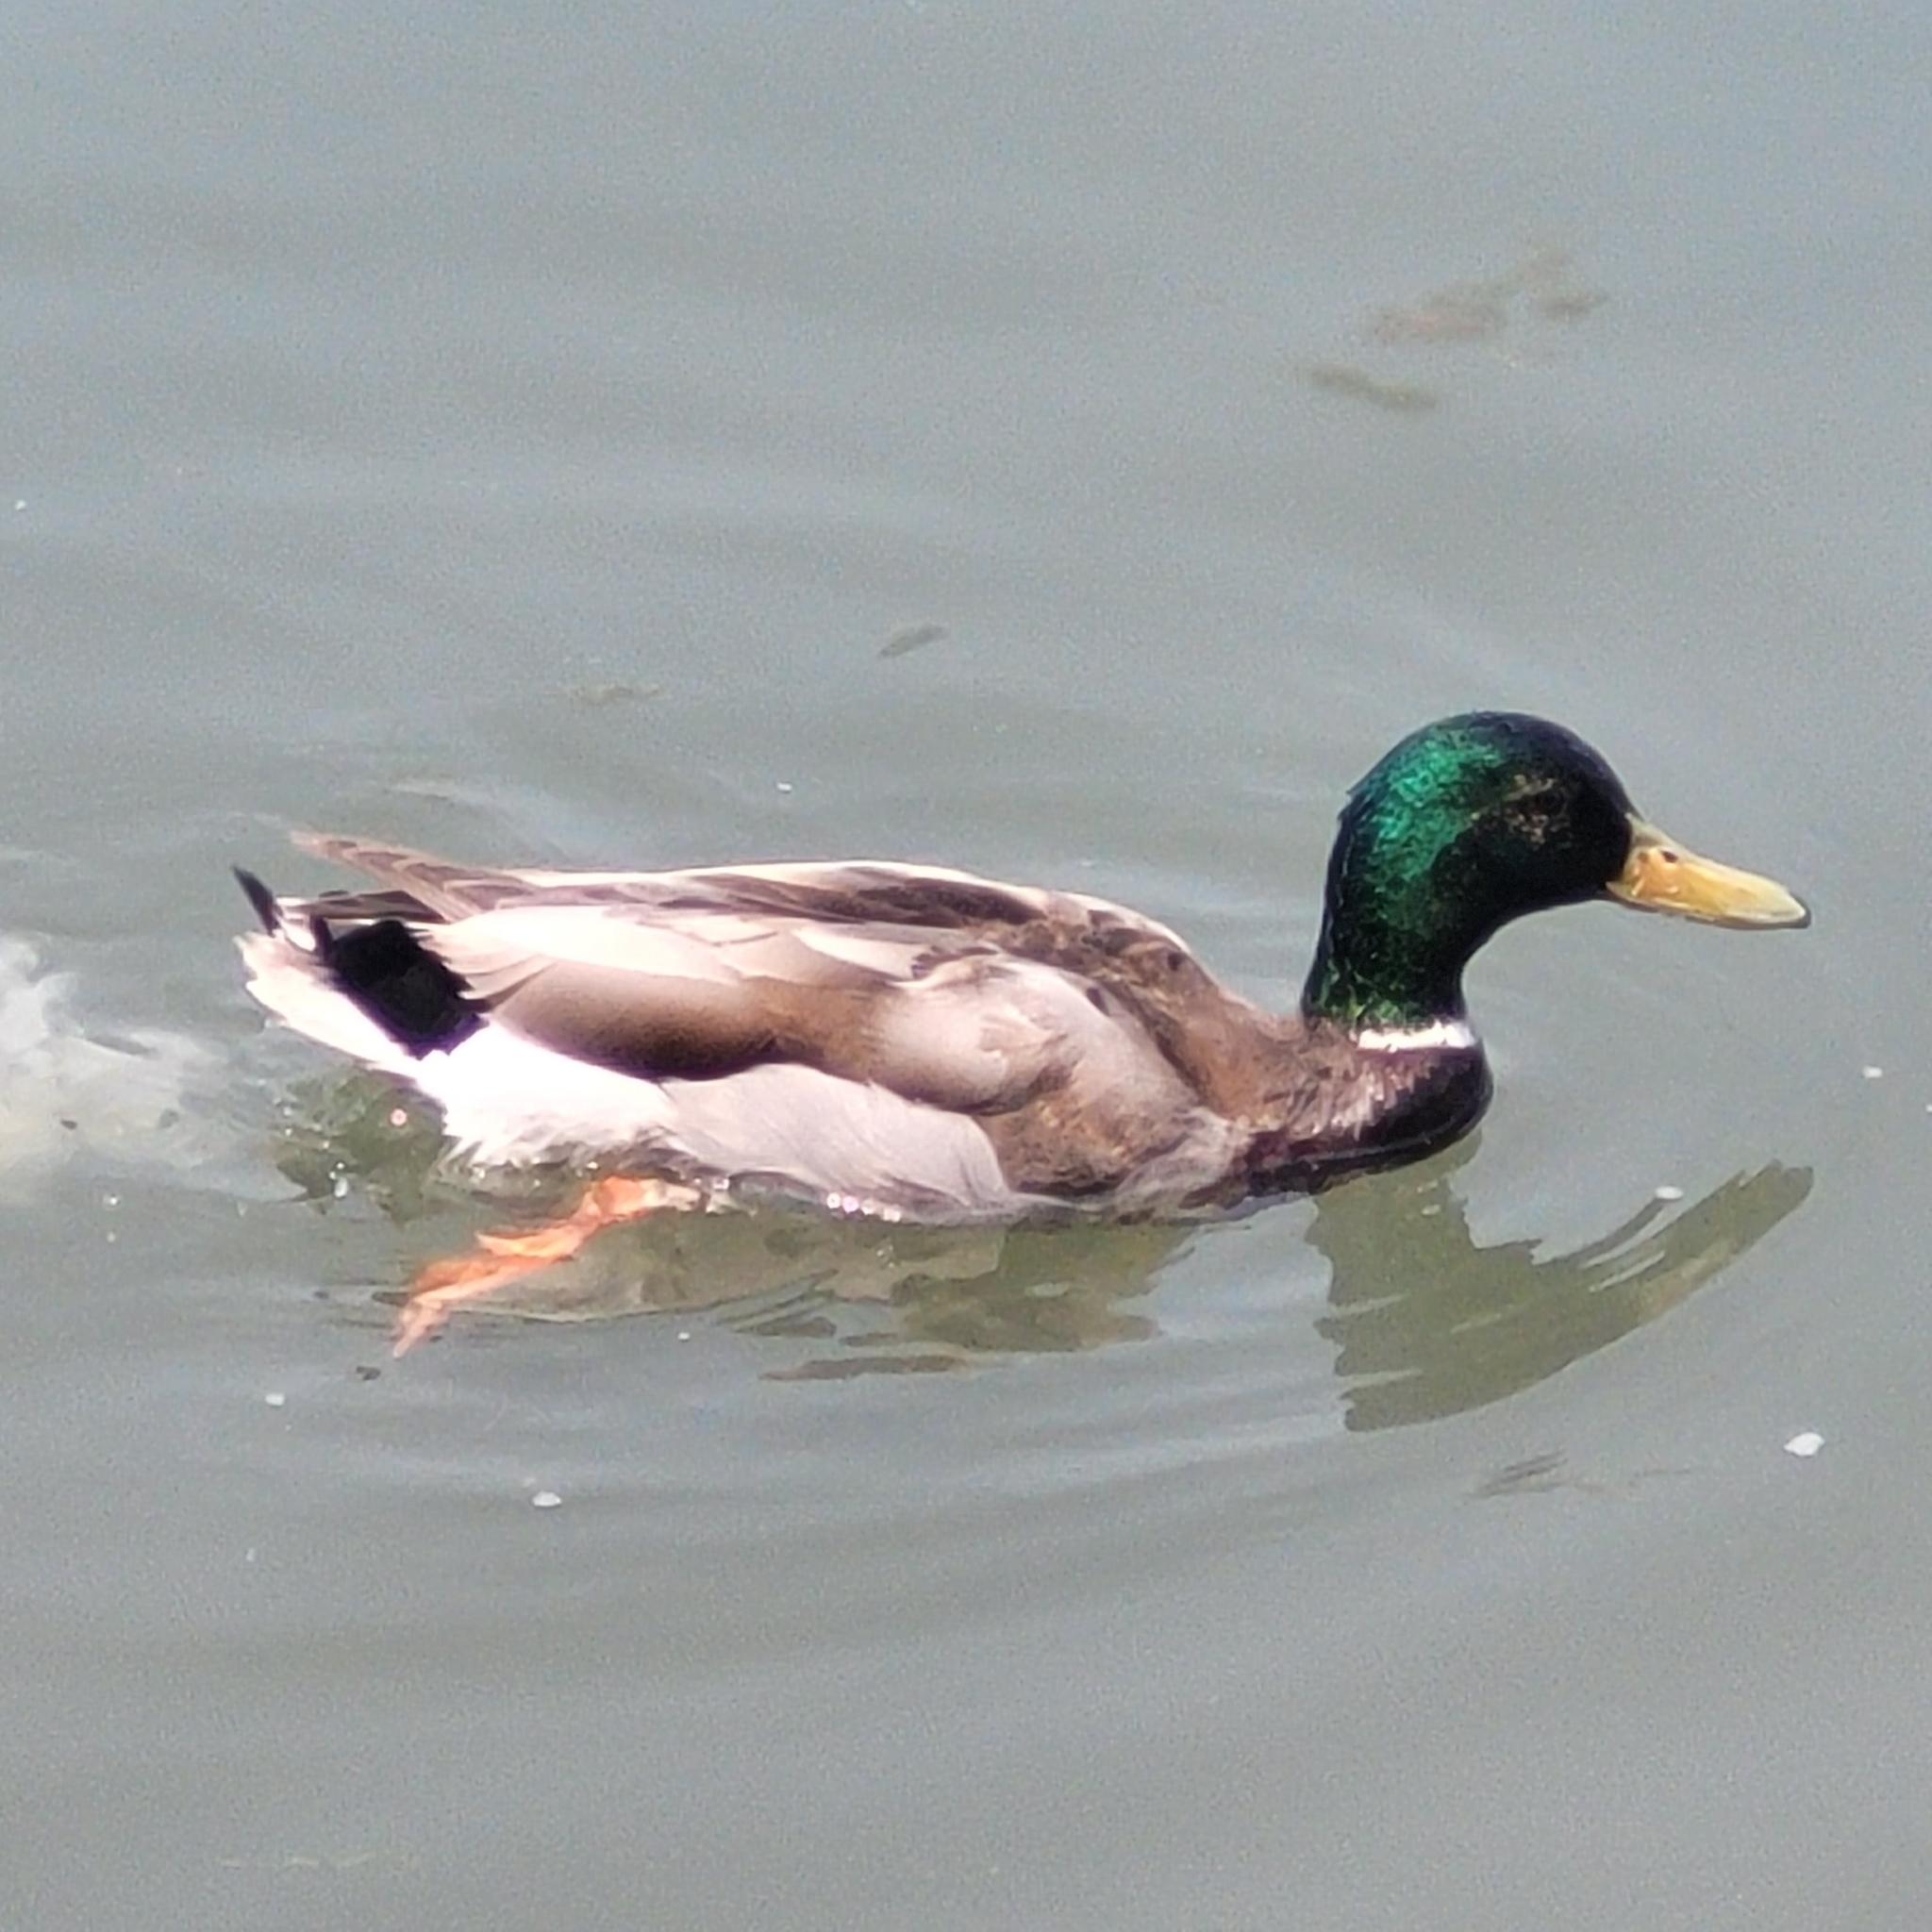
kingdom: Animalia
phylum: Chordata
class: Aves
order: Anseriformes
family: Anatidae
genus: Anas
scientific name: Anas platyrhynchos
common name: Mallard
